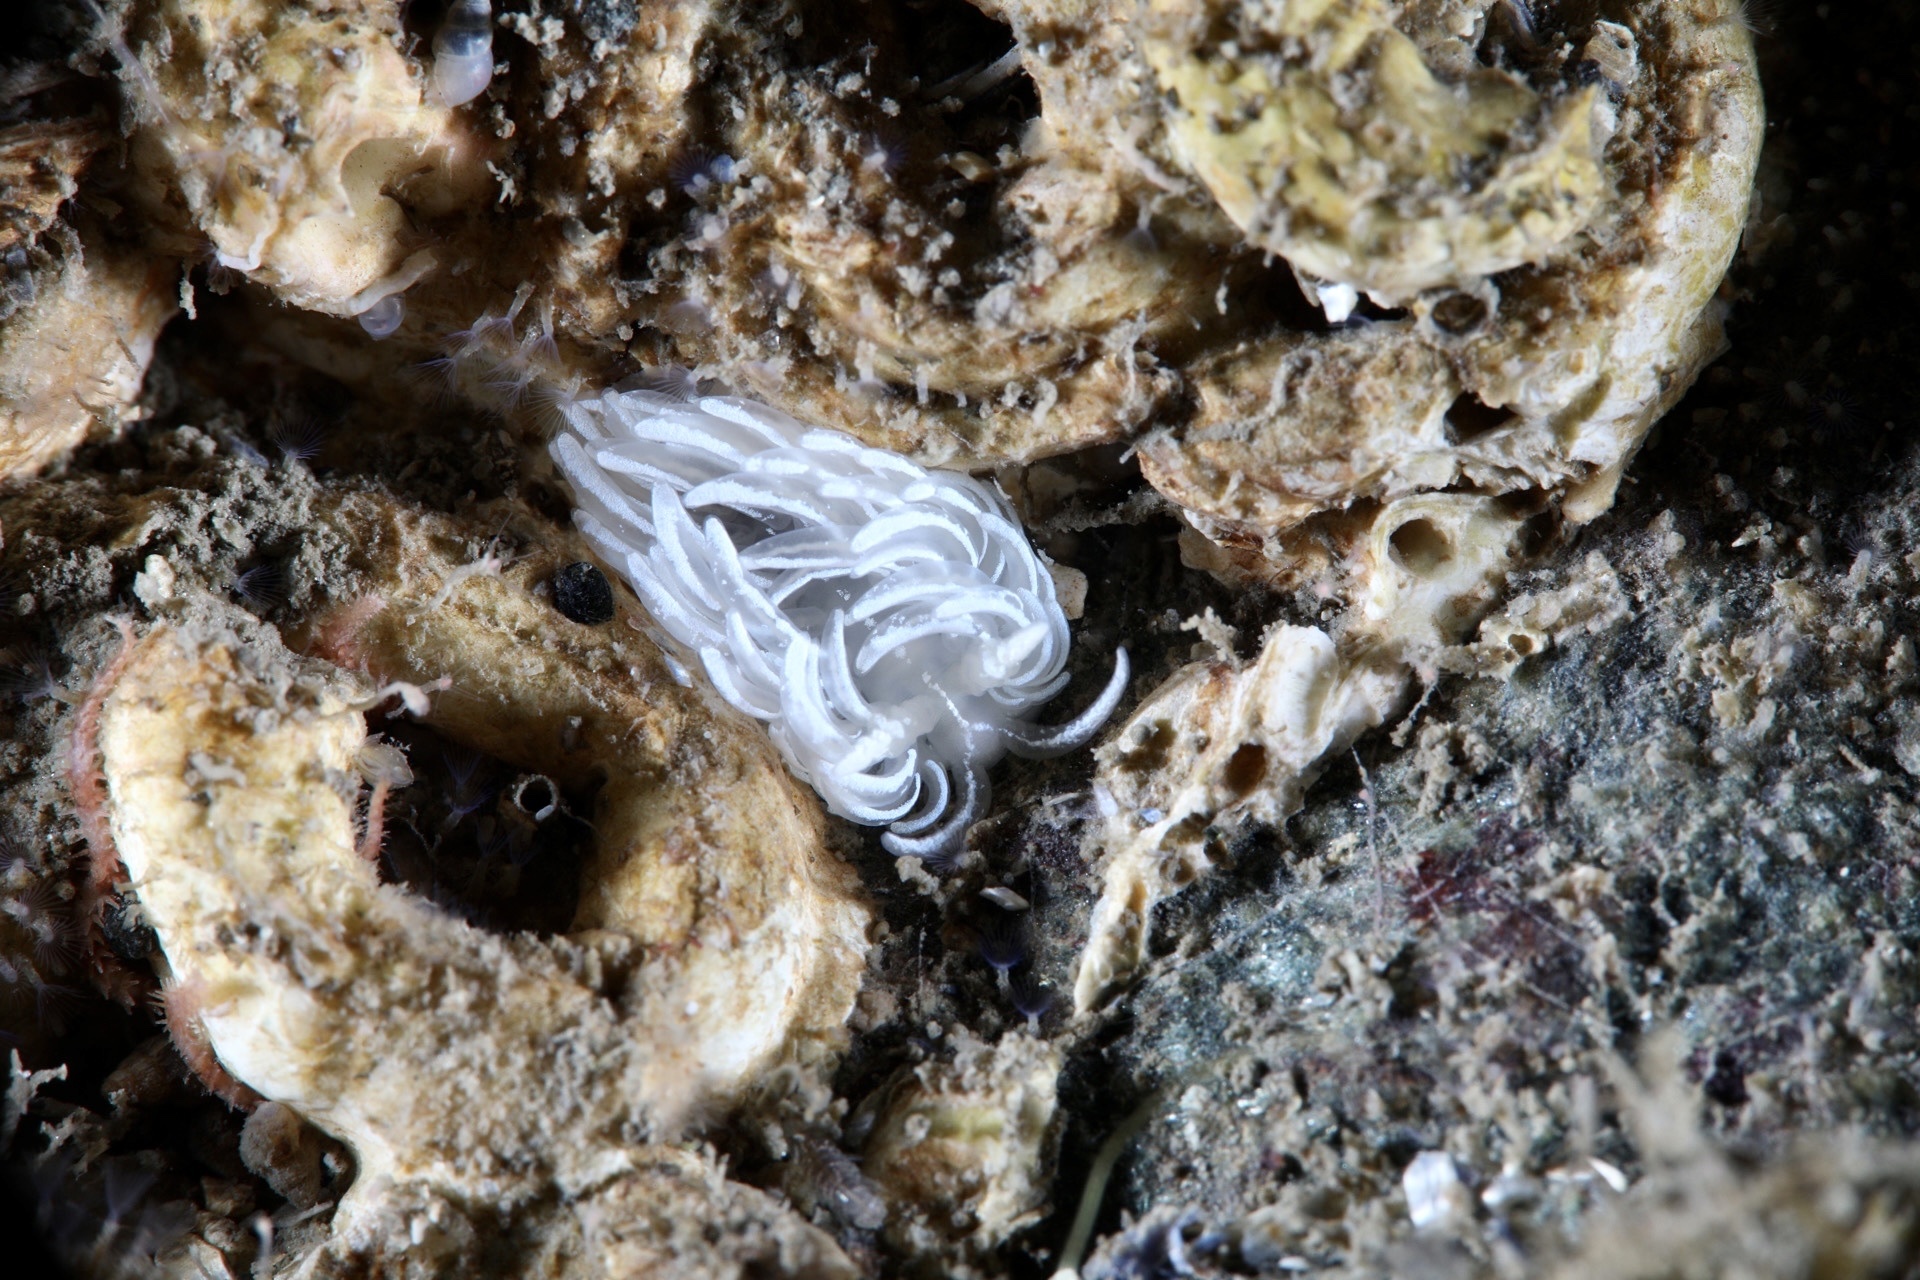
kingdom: Animalia
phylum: Mollusca
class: Gastropoda
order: Nudibranchia
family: Facelinidae
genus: Favorinus
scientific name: Favorinus blianus
